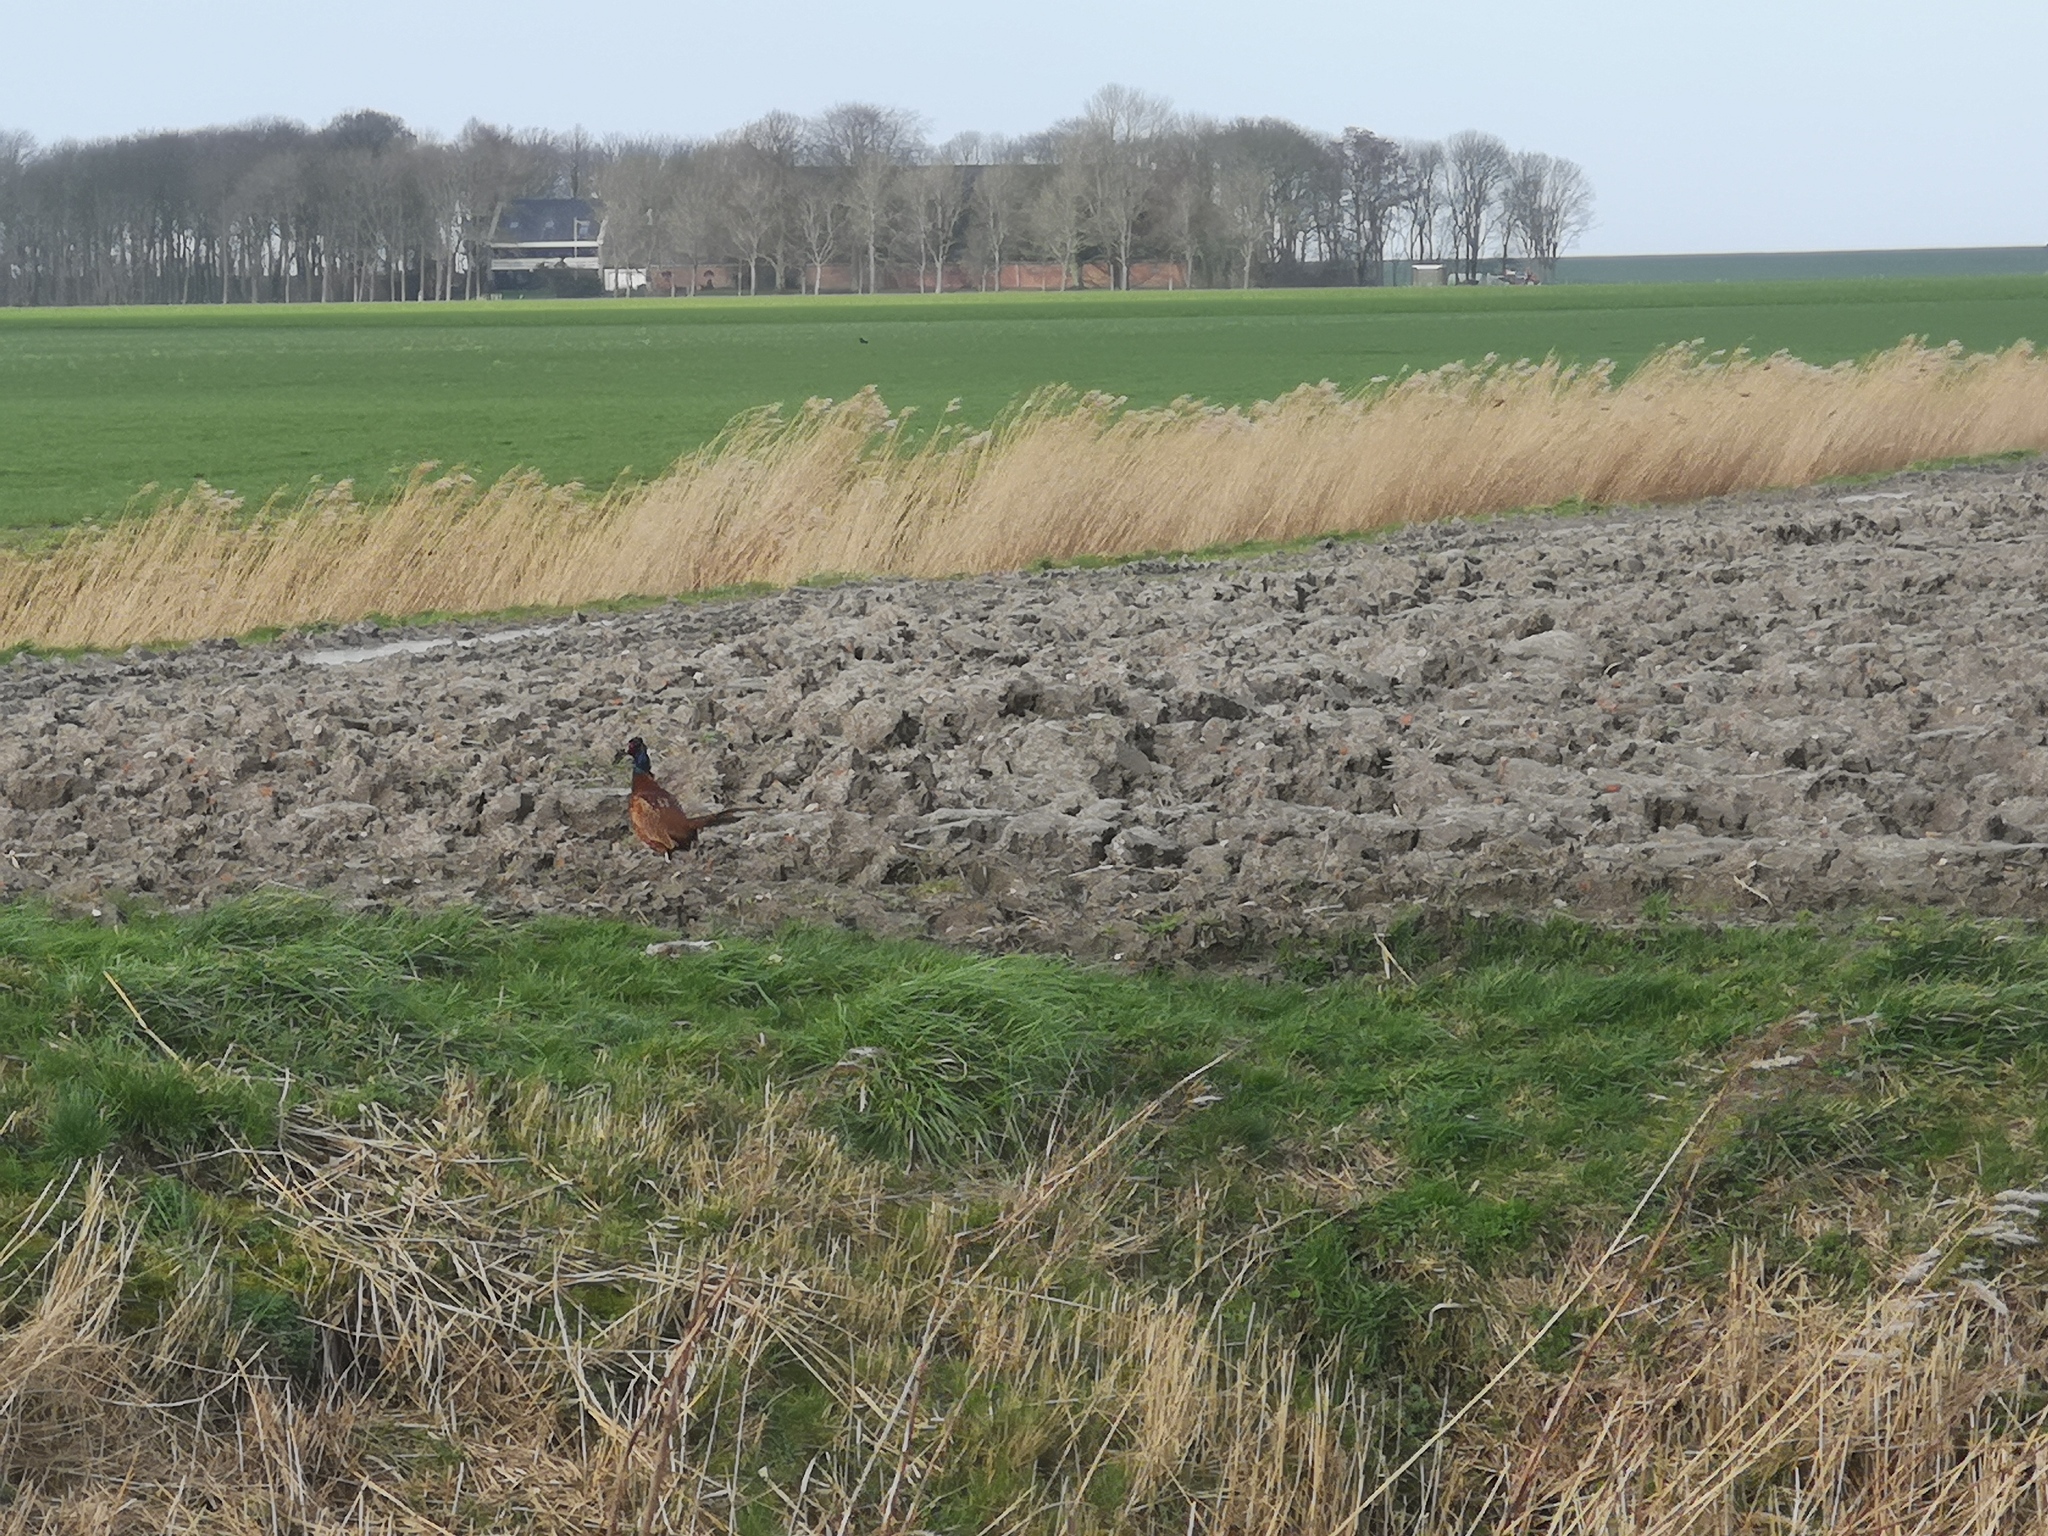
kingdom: Animalia
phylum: Chordata
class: Aves
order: Galliformes
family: Phasianidae
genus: Phasianus
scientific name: Phasianus colchicus
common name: Common pheasant
